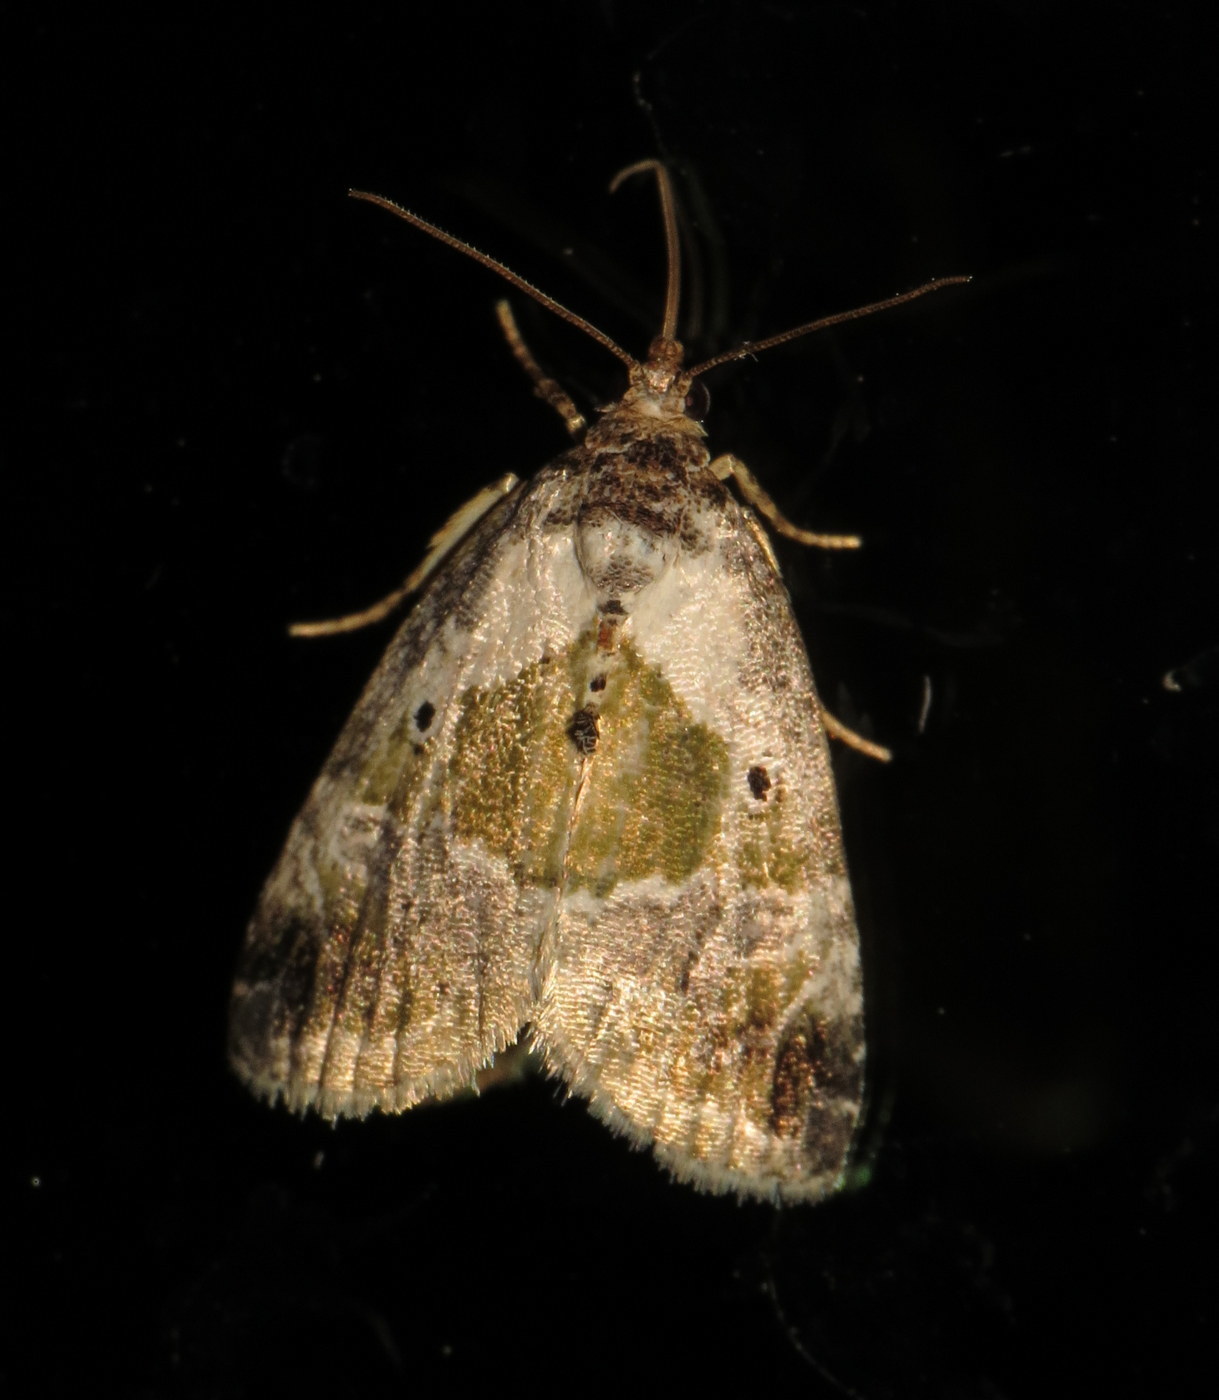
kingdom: Animalia
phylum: Arthropoda
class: Insecta
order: Lepidoptera
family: Noctuidae
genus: Maliattha
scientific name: Maliattha synochitis
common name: Black-dotted glyph
